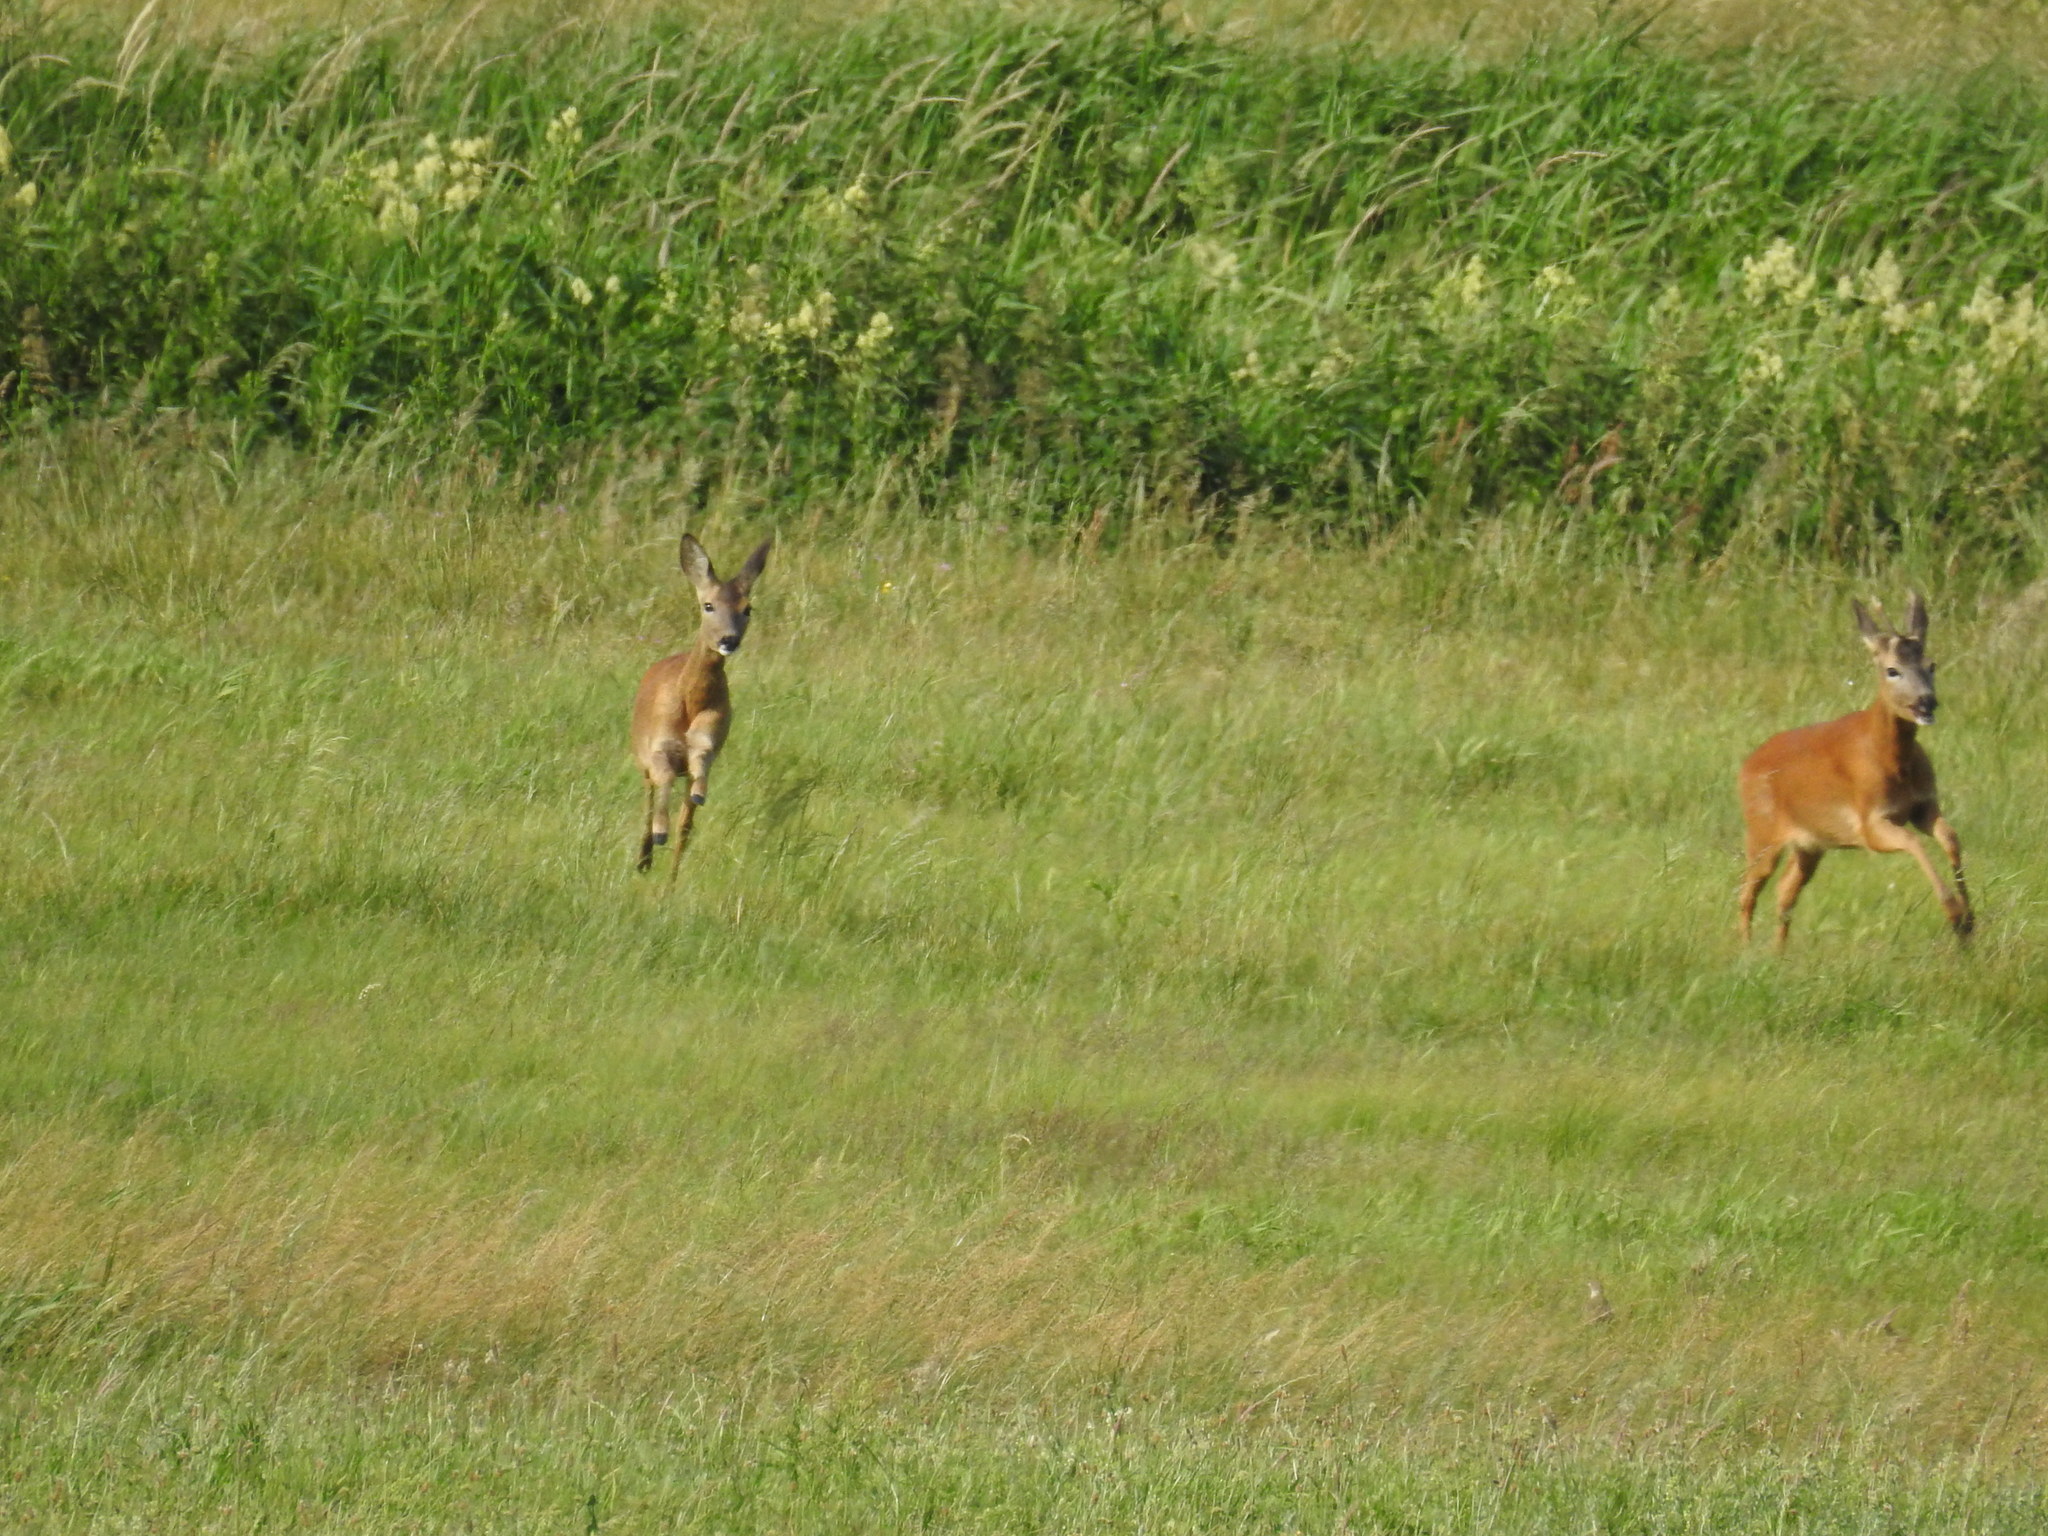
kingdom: Animalia
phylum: Chordata
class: Mammalia
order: Artiodactyla
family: Cervidae
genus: Capreolus
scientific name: Capreolus capreolus
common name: Western roe deer
